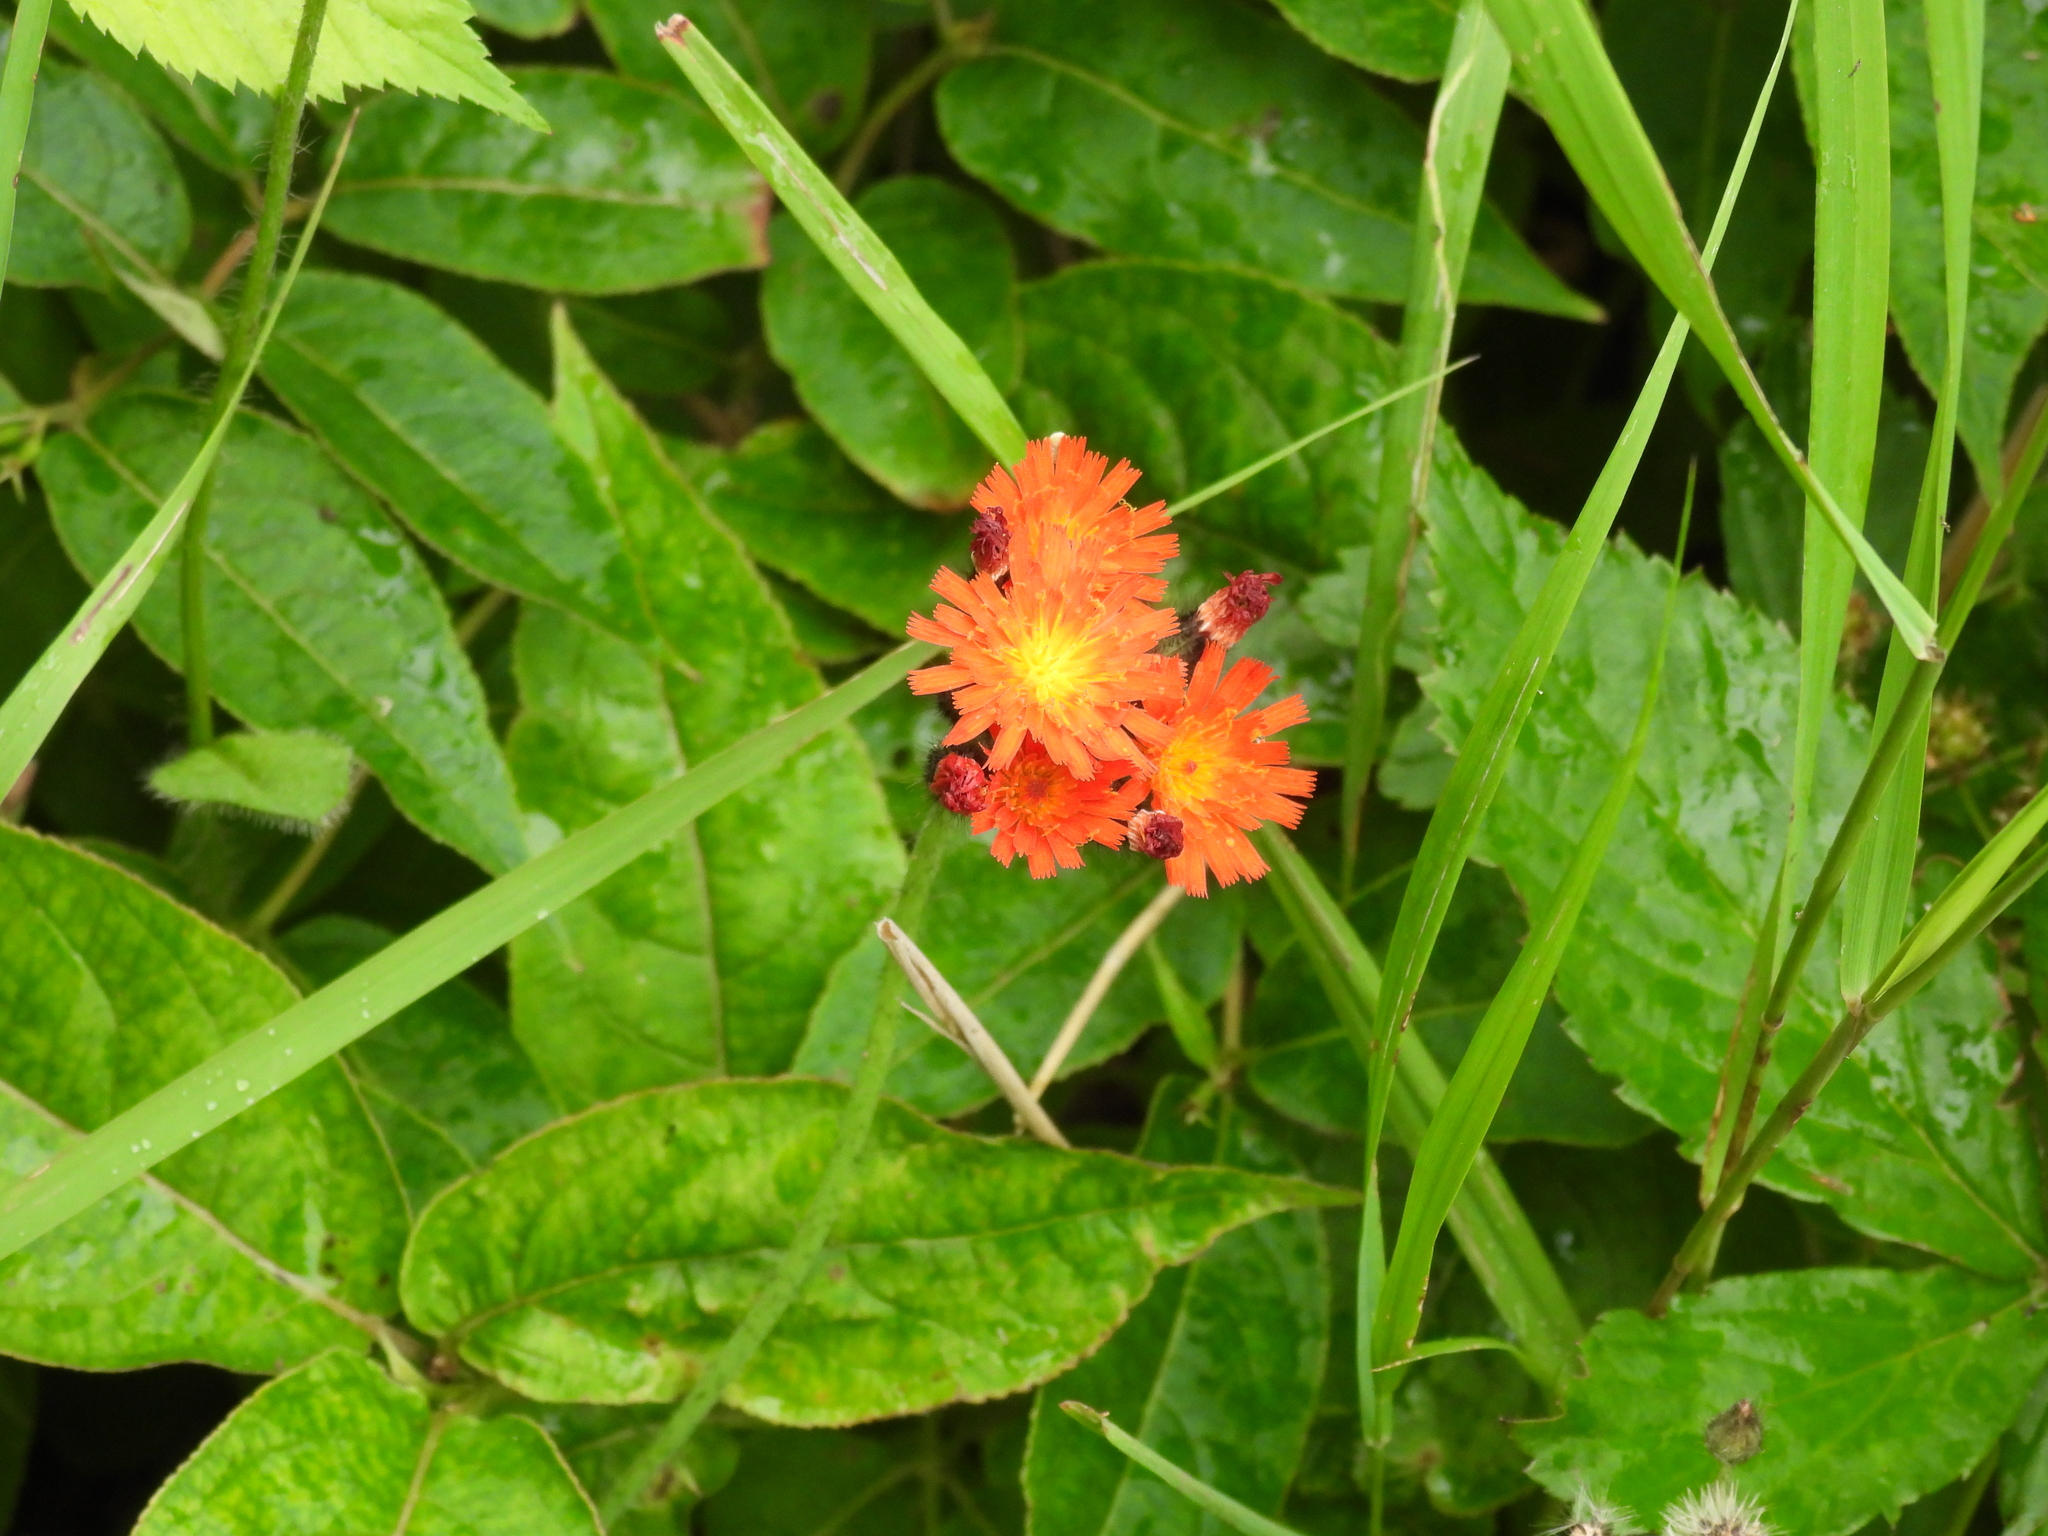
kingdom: Plantae
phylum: Tracheophyta
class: Magnoliopsida
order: Asterales
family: Asteraceae
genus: Pilosella
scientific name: Pilosella aurantiaca
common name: Fox-and-cubs
